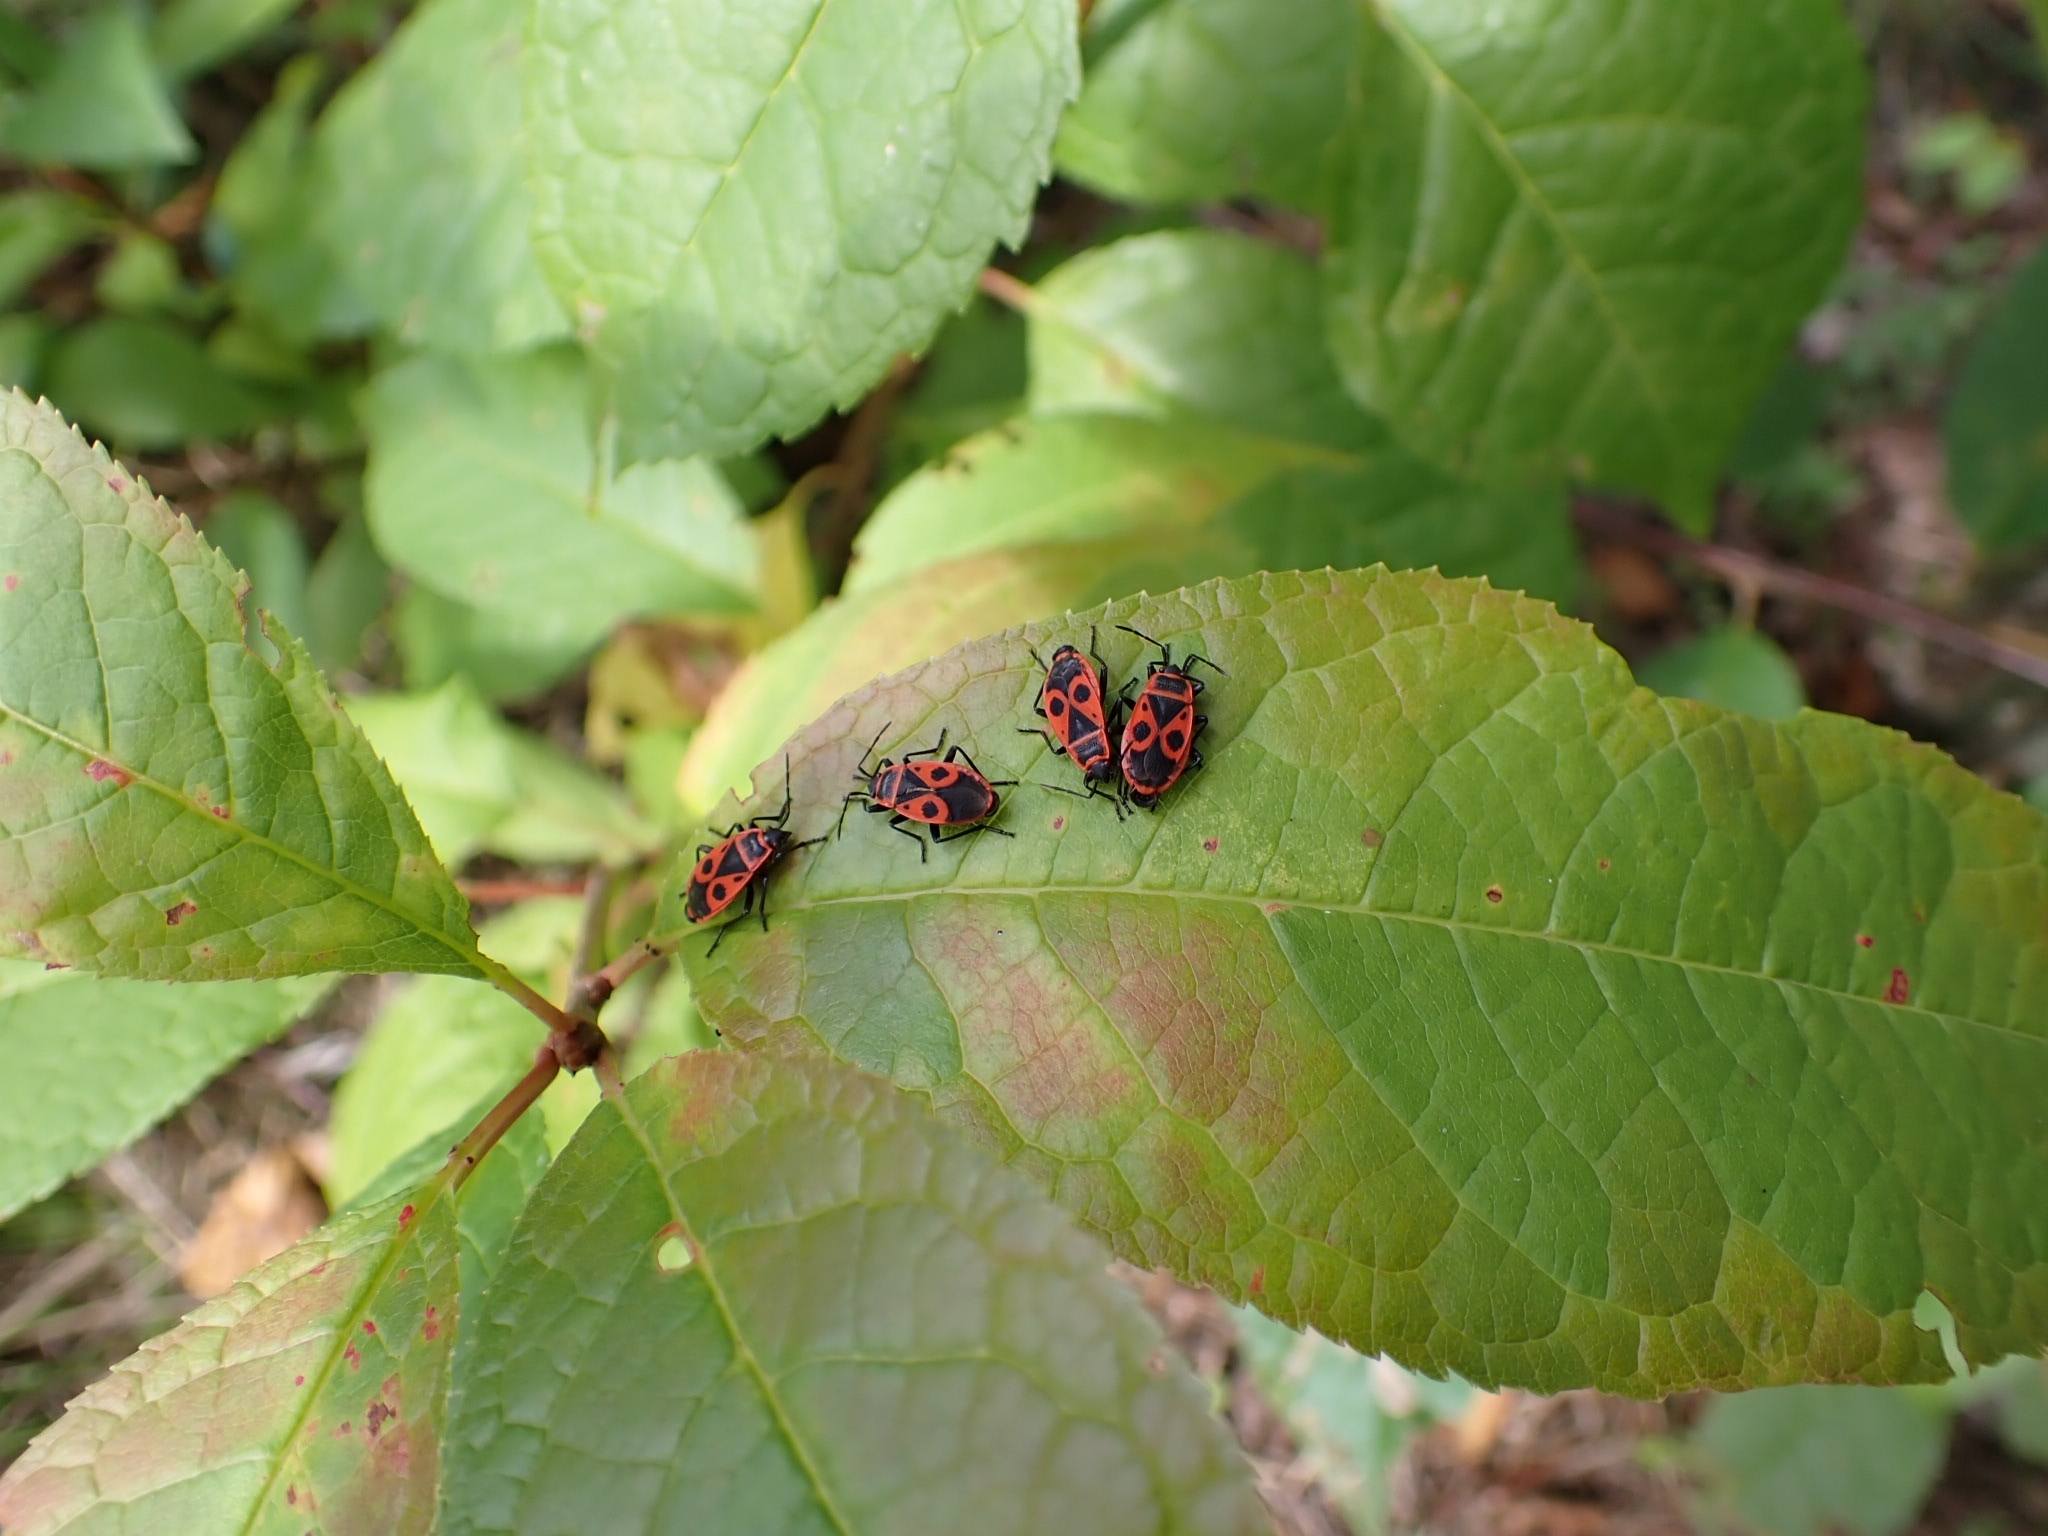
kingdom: Animalia
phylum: Arthropoda
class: Insecta
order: Hemiptera
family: Pyrrhocoridae
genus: Pyrrhocoris
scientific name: Pyrrhocoris apterus
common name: Firebug
